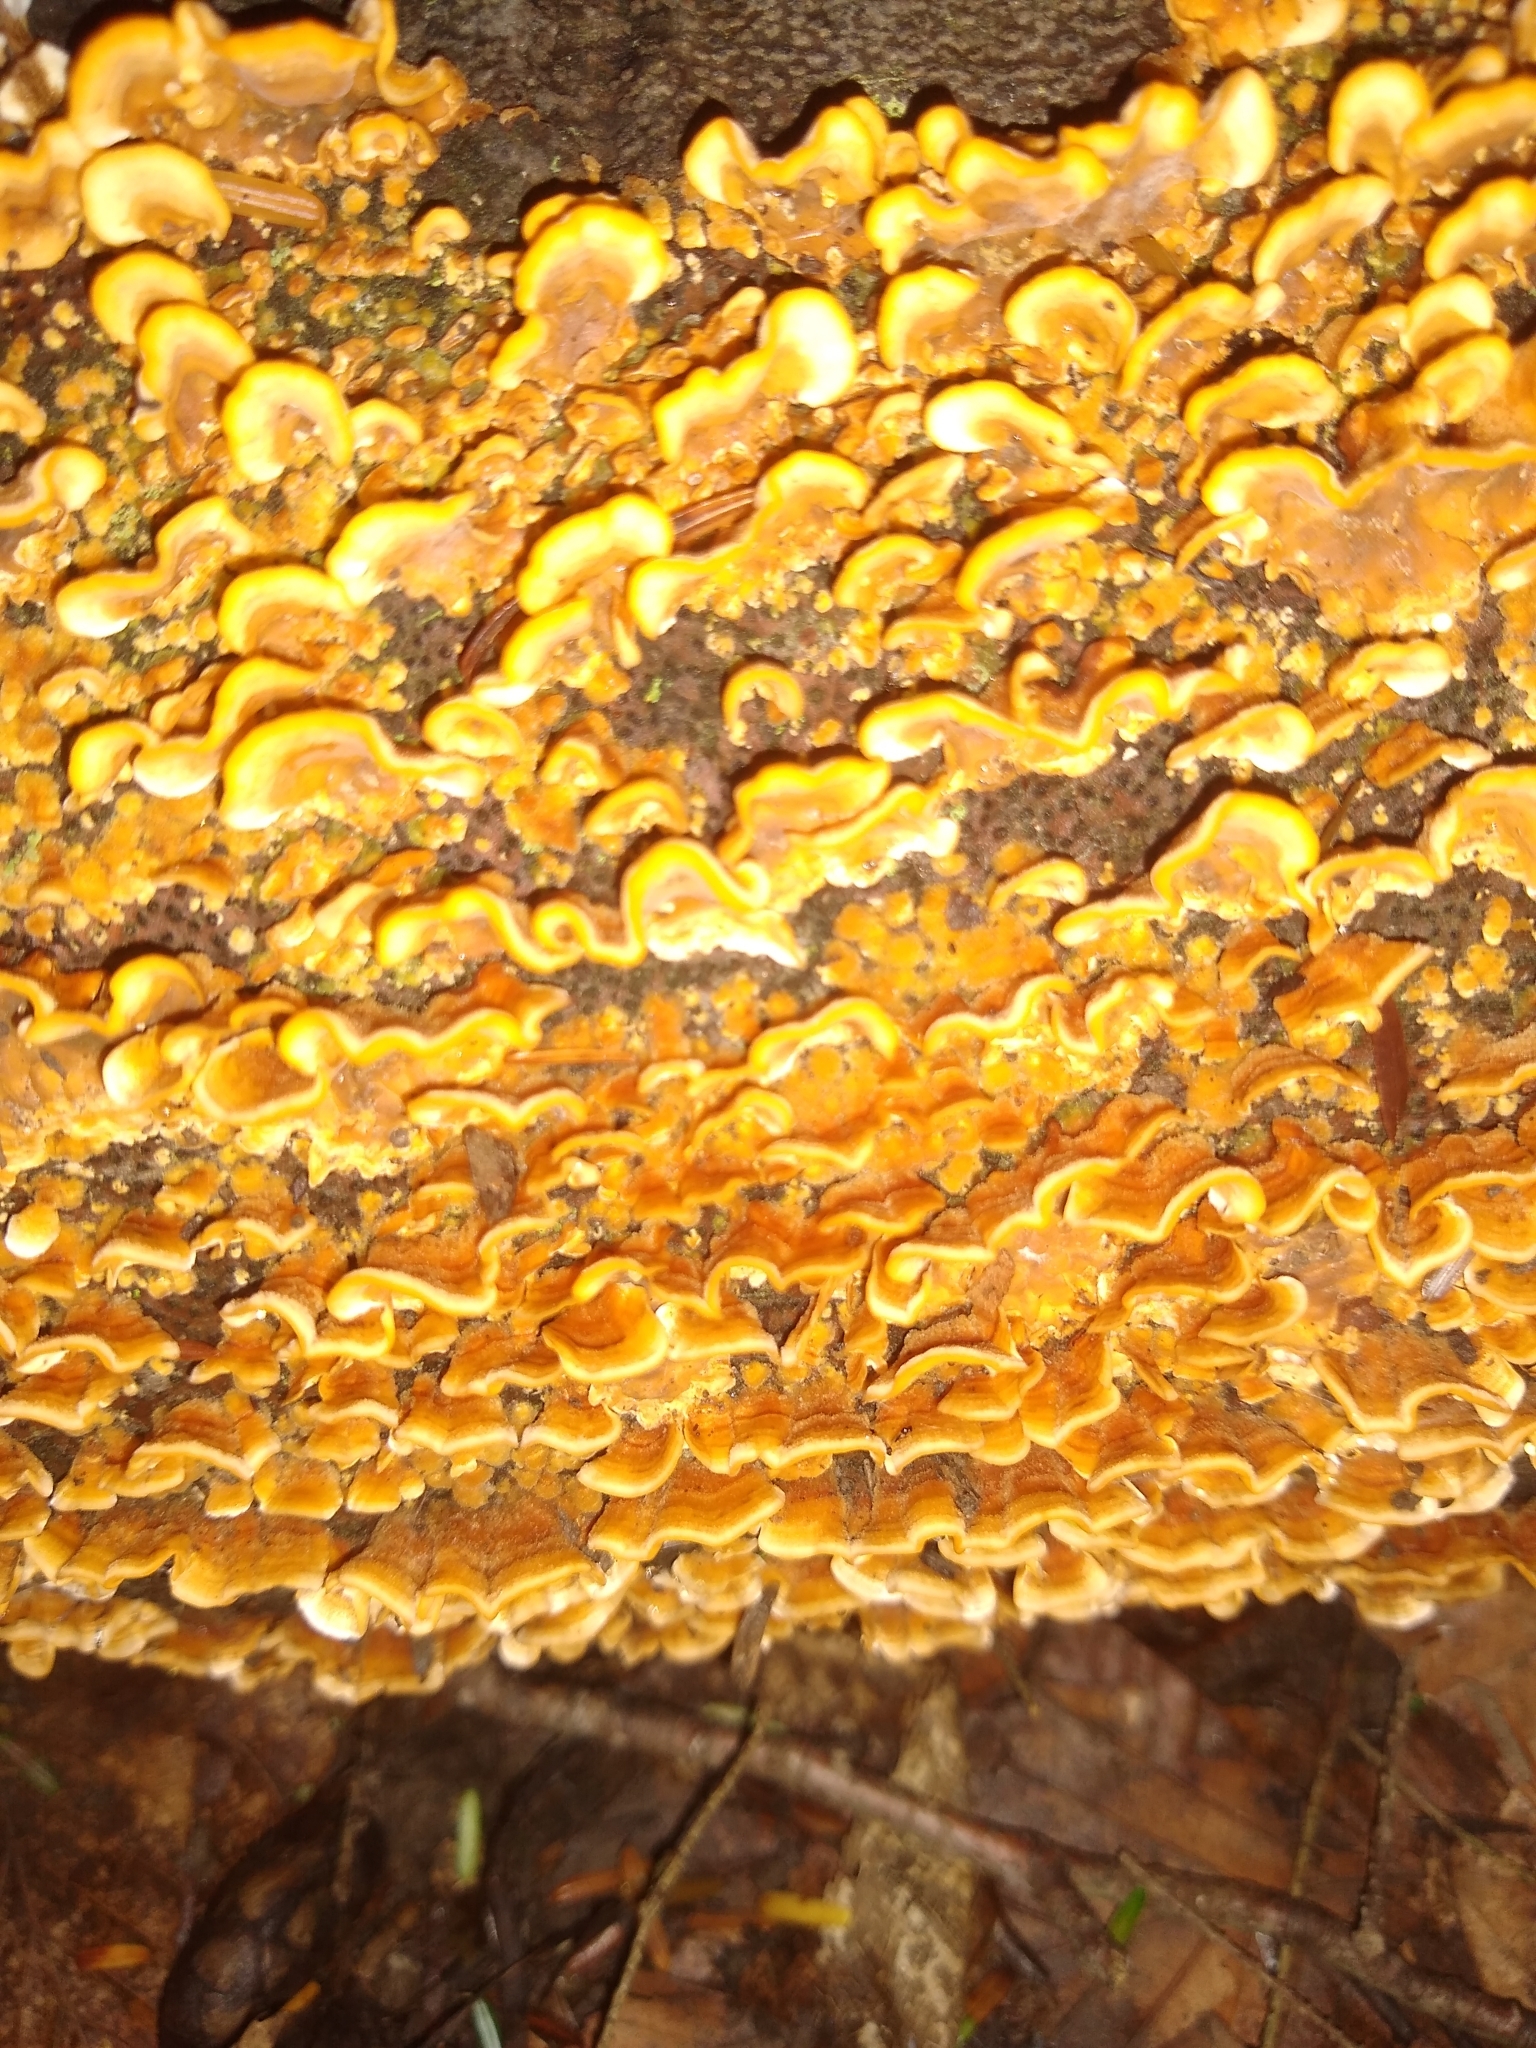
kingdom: Fungi
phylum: Basidiomycota
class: Agaricomycetes
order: Russulales
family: Stereaceae
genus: Stereum
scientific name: Stereum complicatum
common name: Crowded parchment
